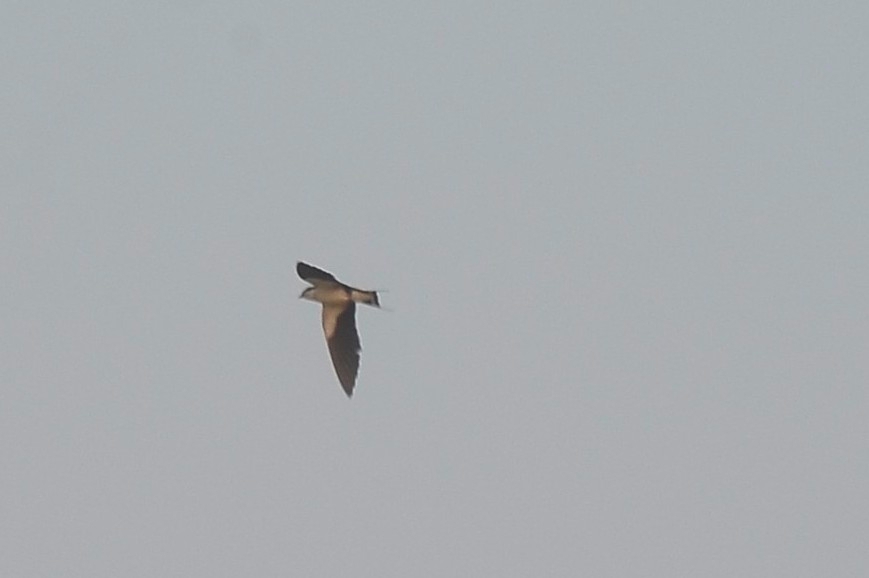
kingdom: Animalia
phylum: Chordata
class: Aves
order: Passeriformes
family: Hirundinidae
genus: Hirundo
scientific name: Hirundo smithii
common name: Wire-tailed swallow
